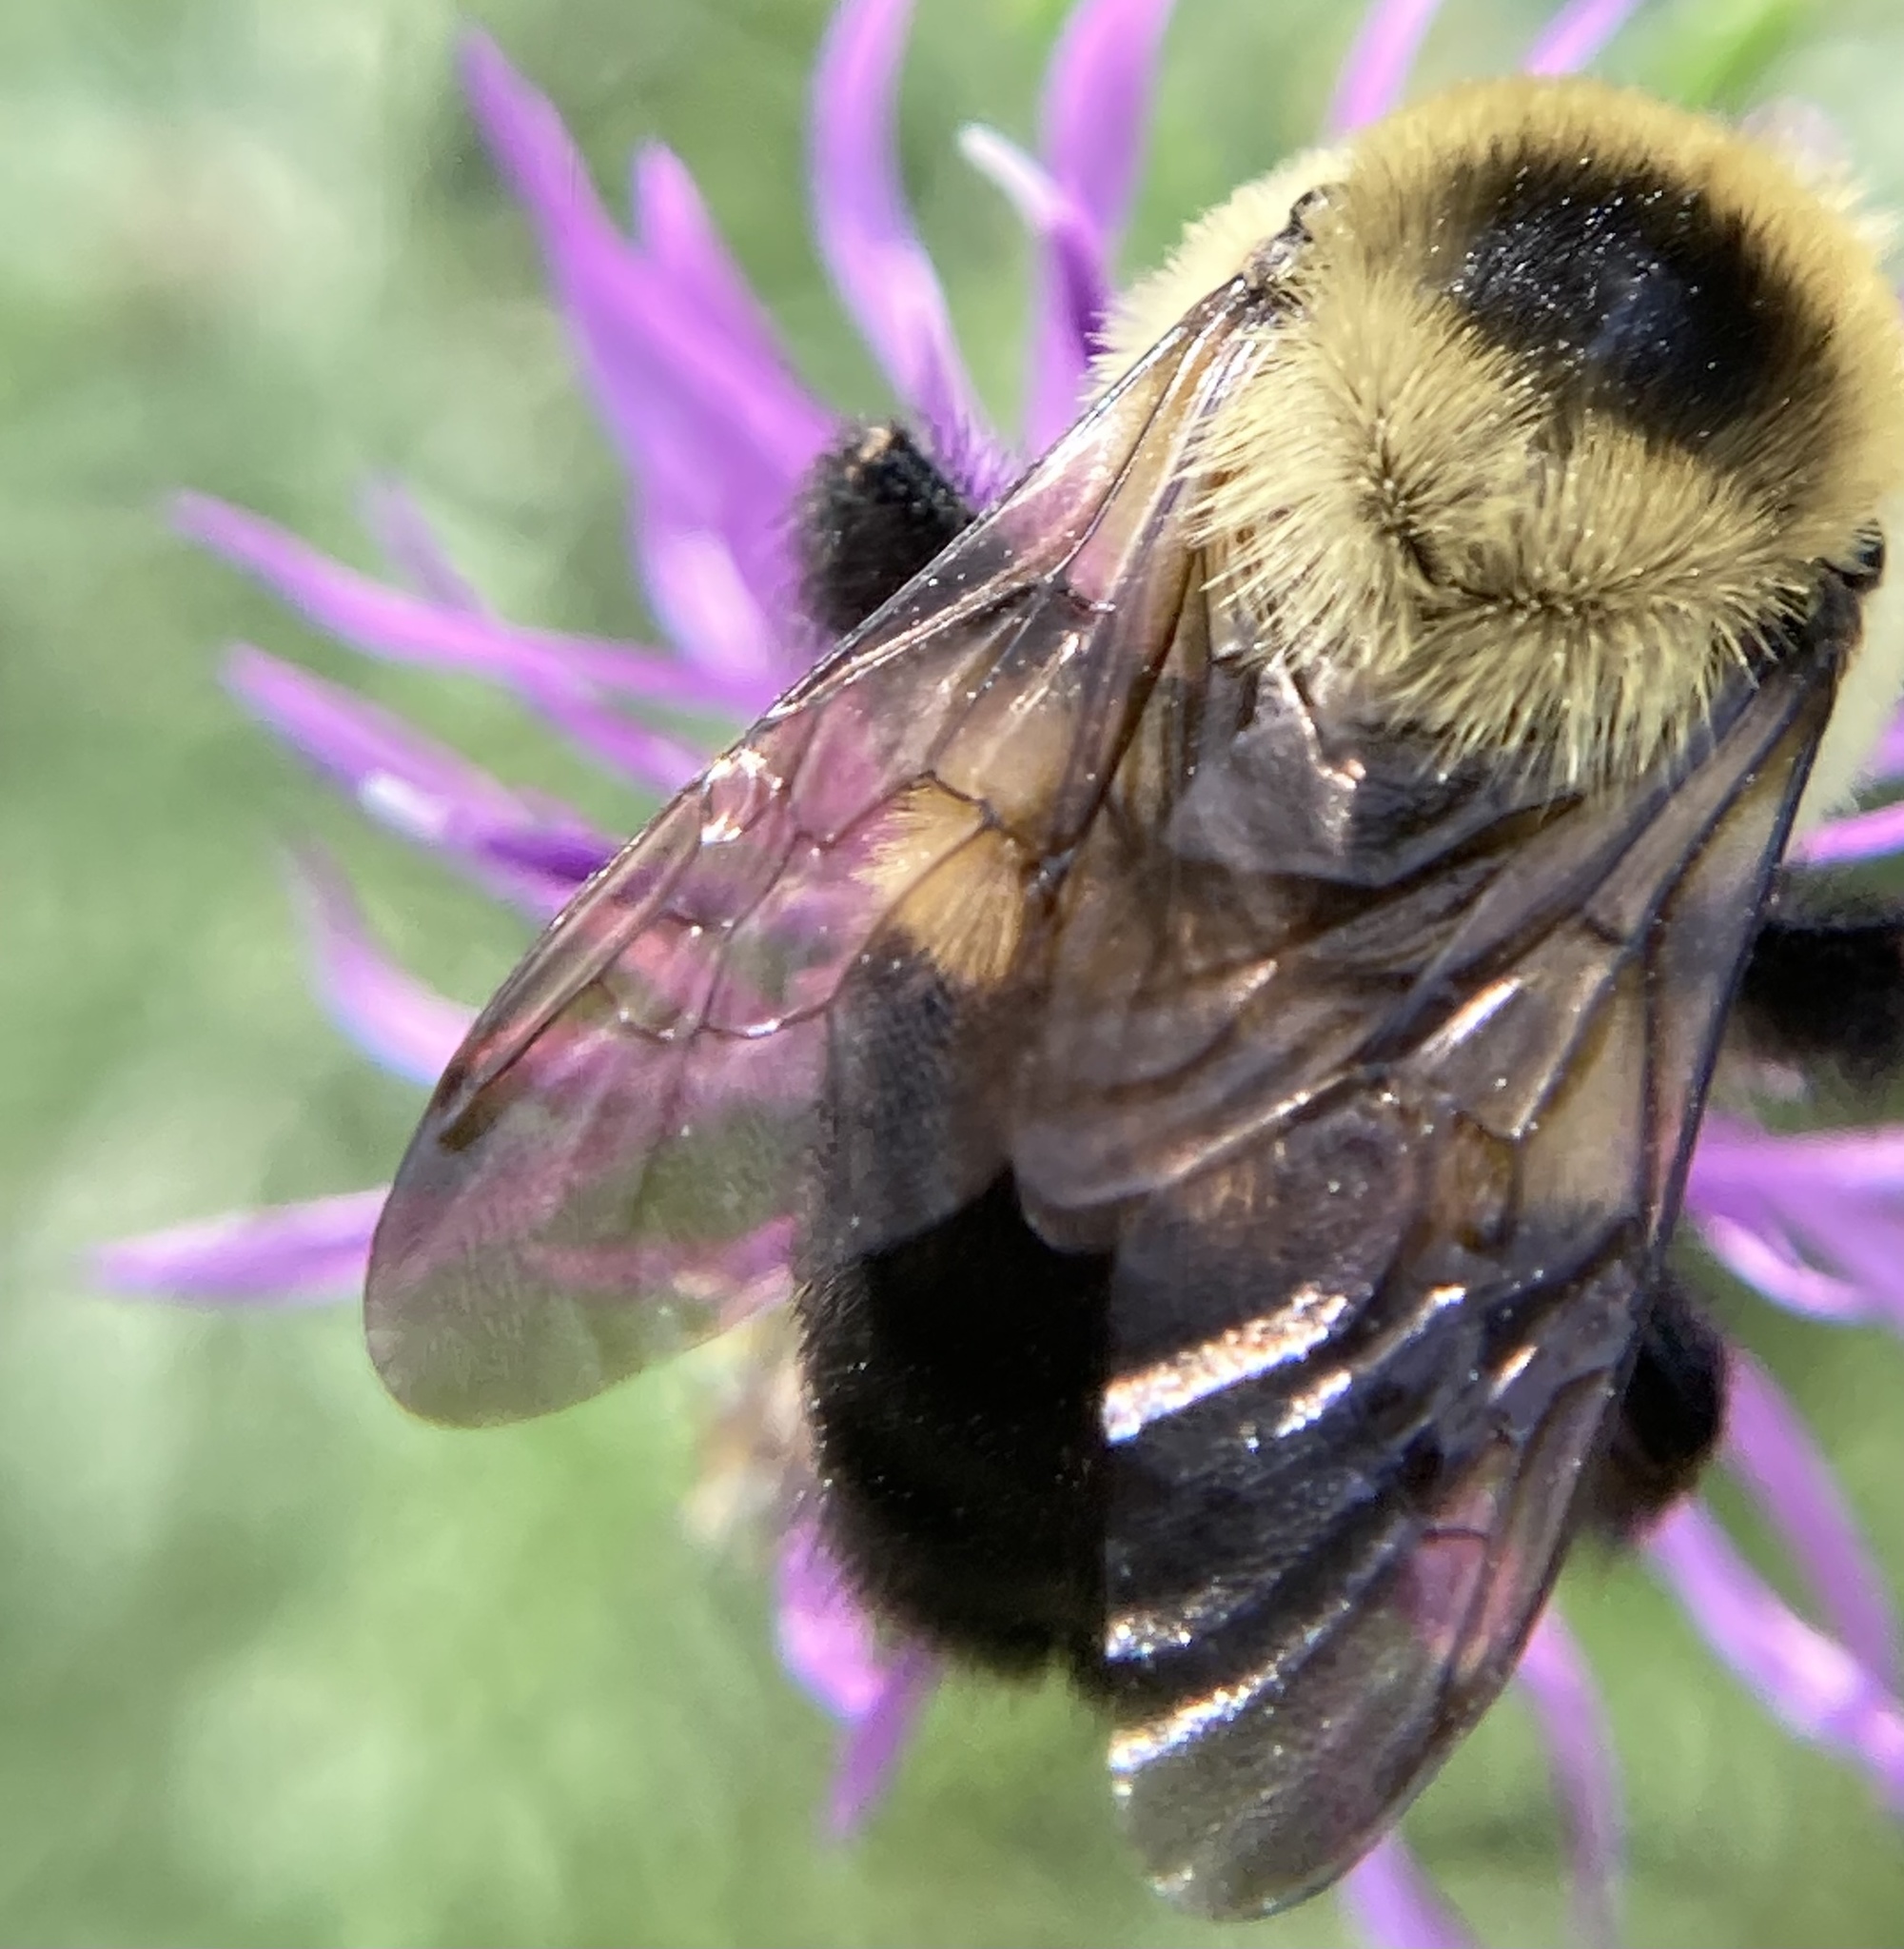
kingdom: Animalia
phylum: Arthropoda
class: Insecta
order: Hymenoptera
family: Apidae
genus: Bombus
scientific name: Bombus griseocollis
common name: Brown-belted bumble bee
